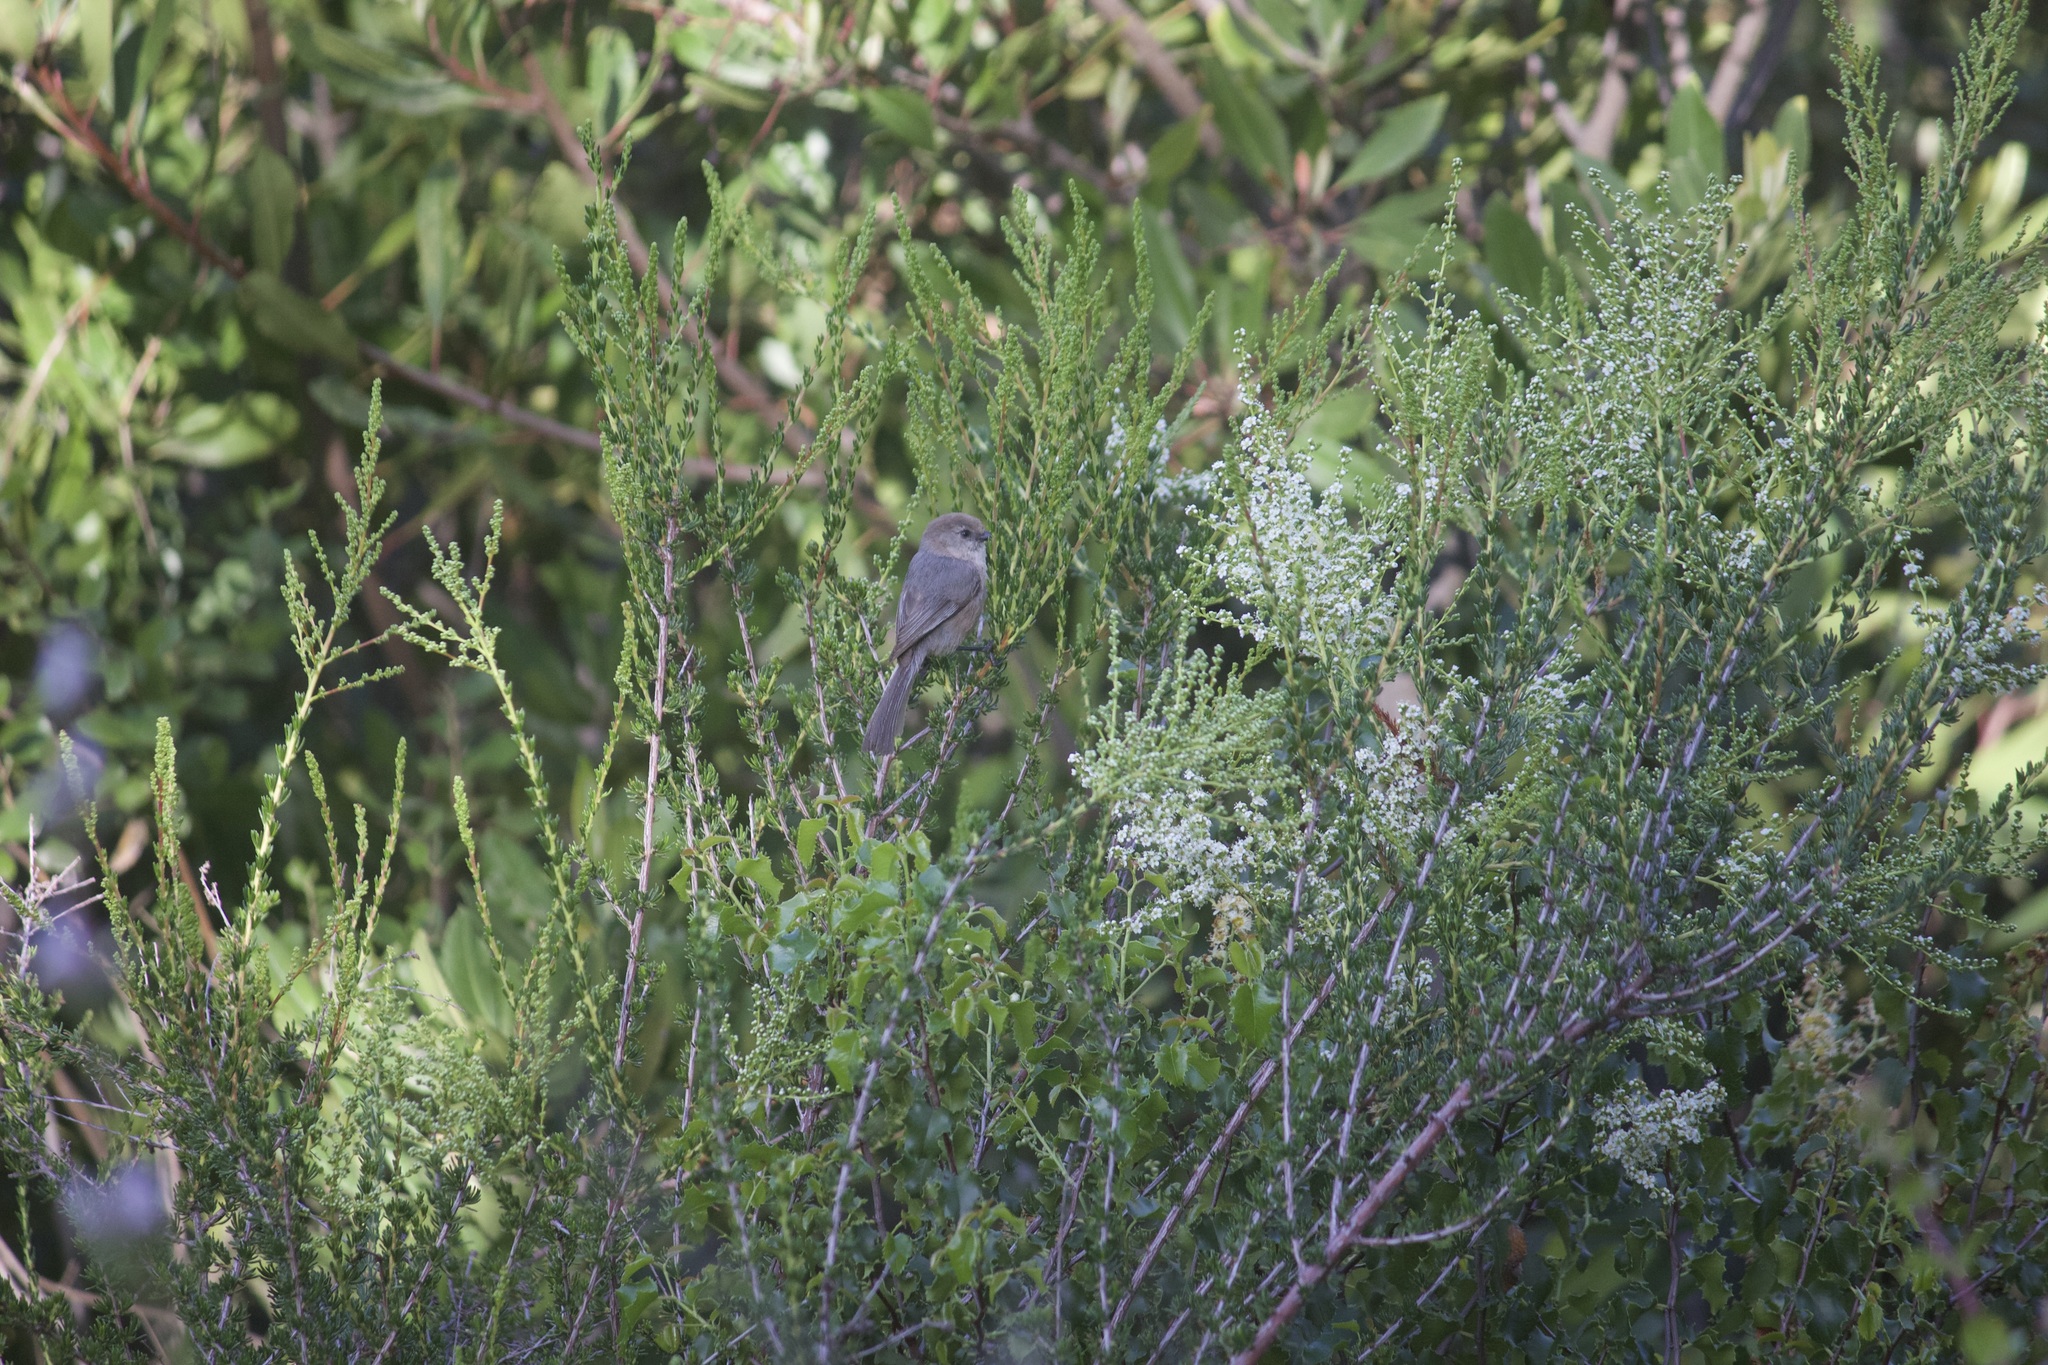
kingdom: Animalia
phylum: Chordata
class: Aves
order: Passeriformes
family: Aegithalidae
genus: Psaltriparus
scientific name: Psaltriparus minimus
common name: American bushtit
